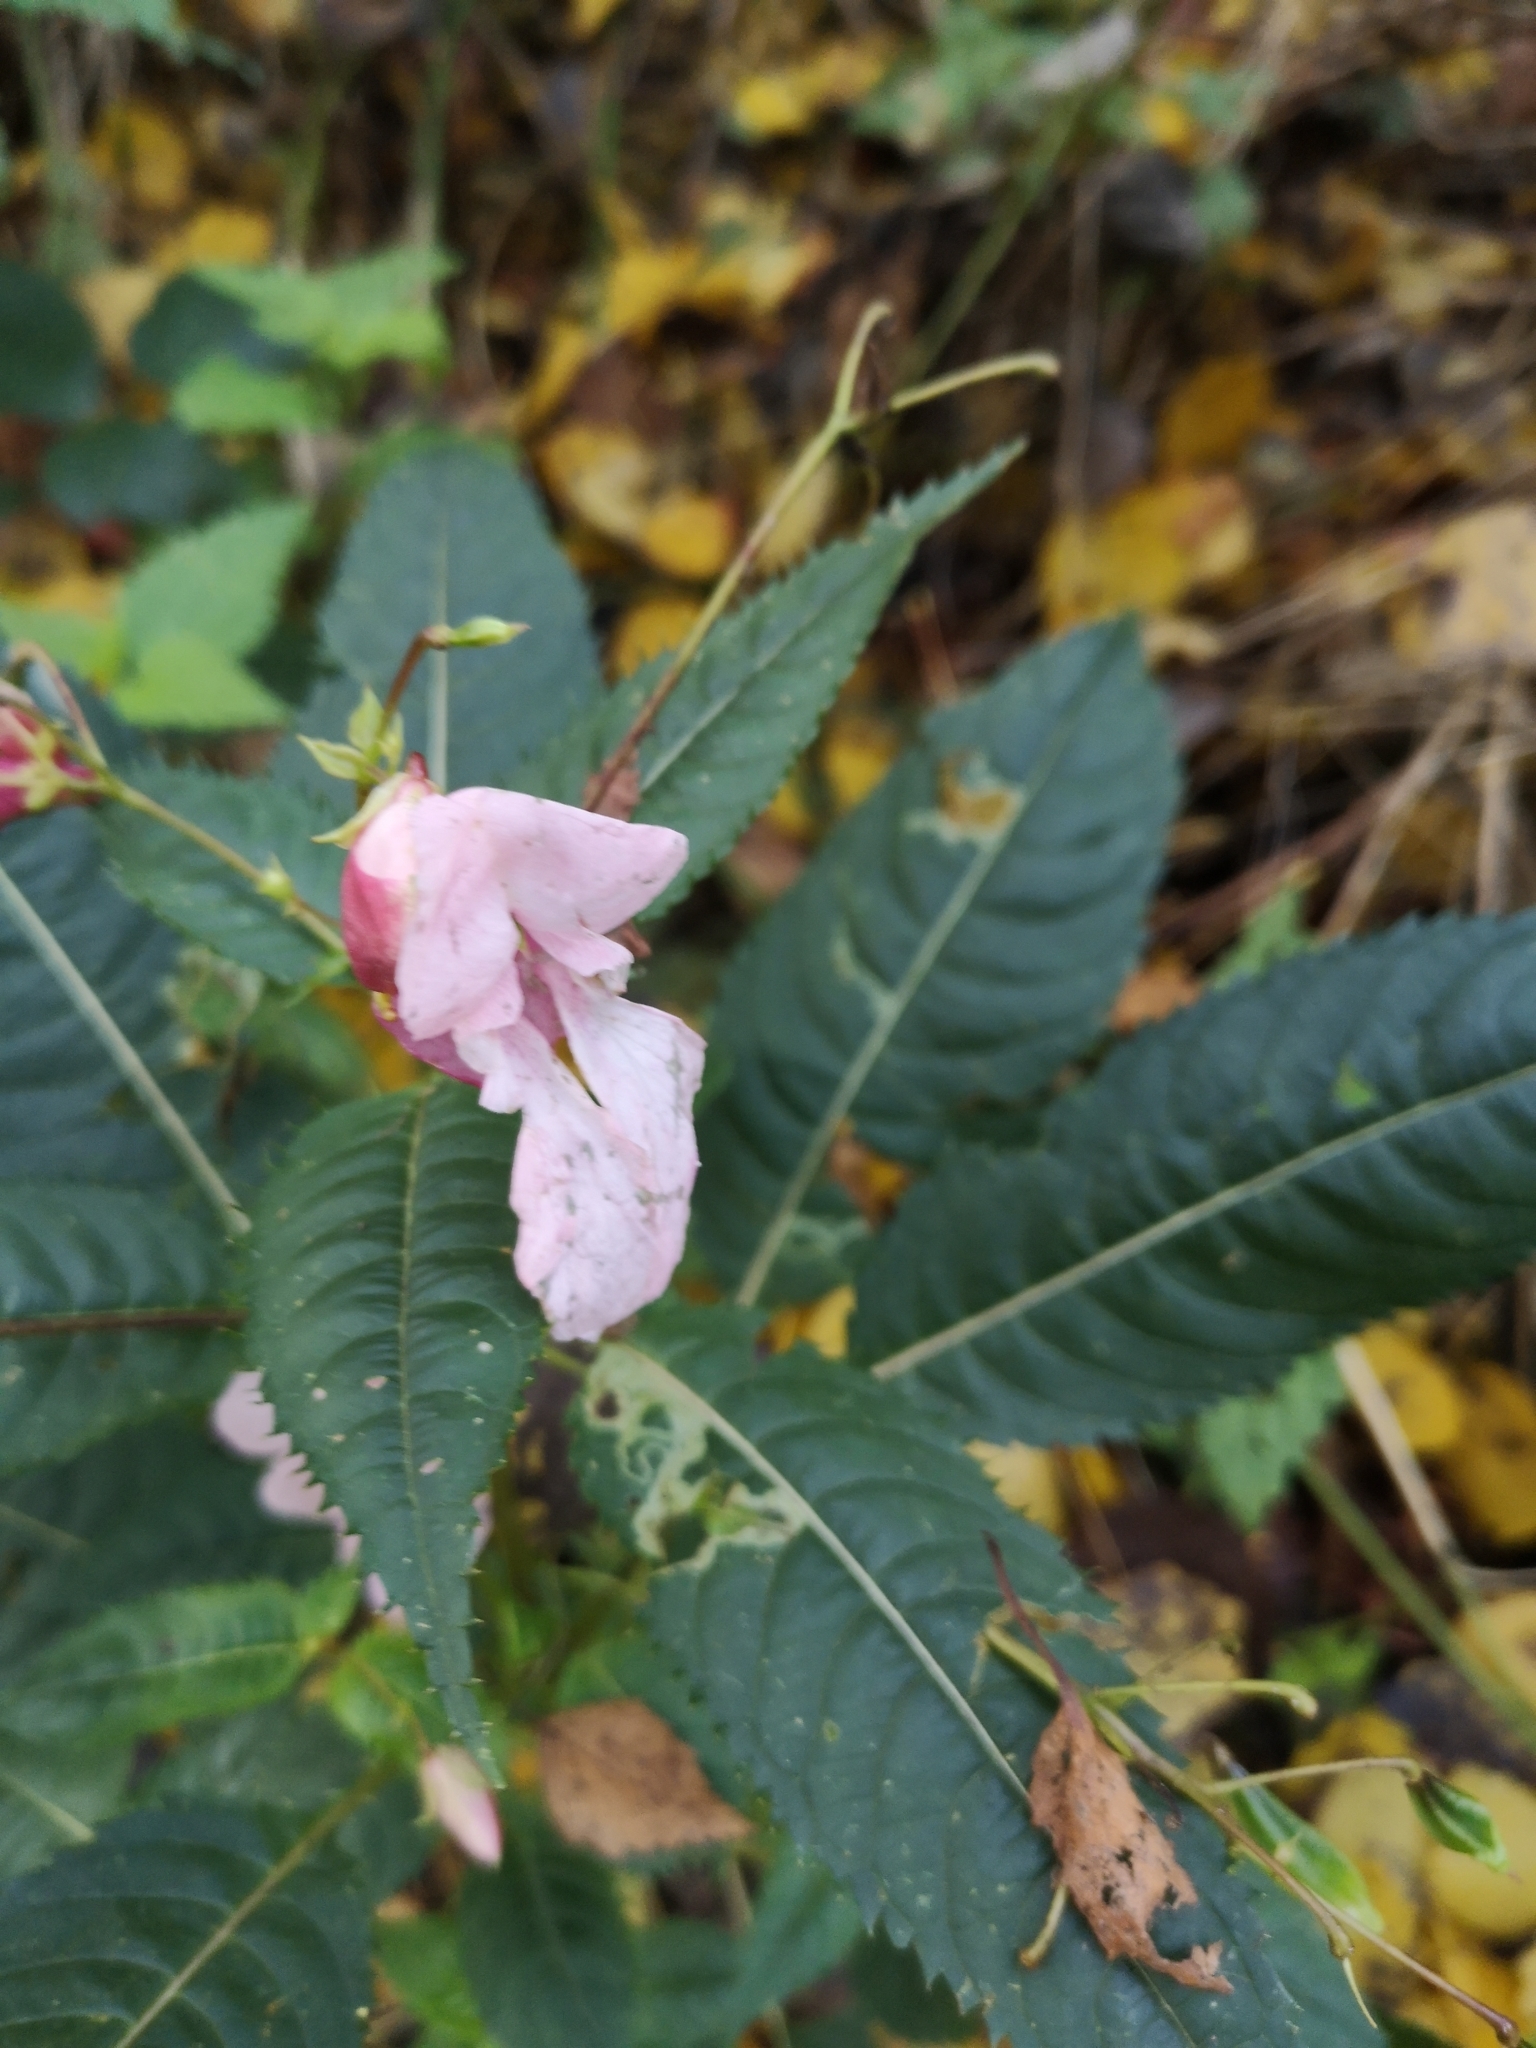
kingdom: Plantae
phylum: Tracheophyta
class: Magnoliopsida
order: Ericales
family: Balsaminaceae
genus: Impatiens
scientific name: Impatiens glandulifera
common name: Himalayan balsam
